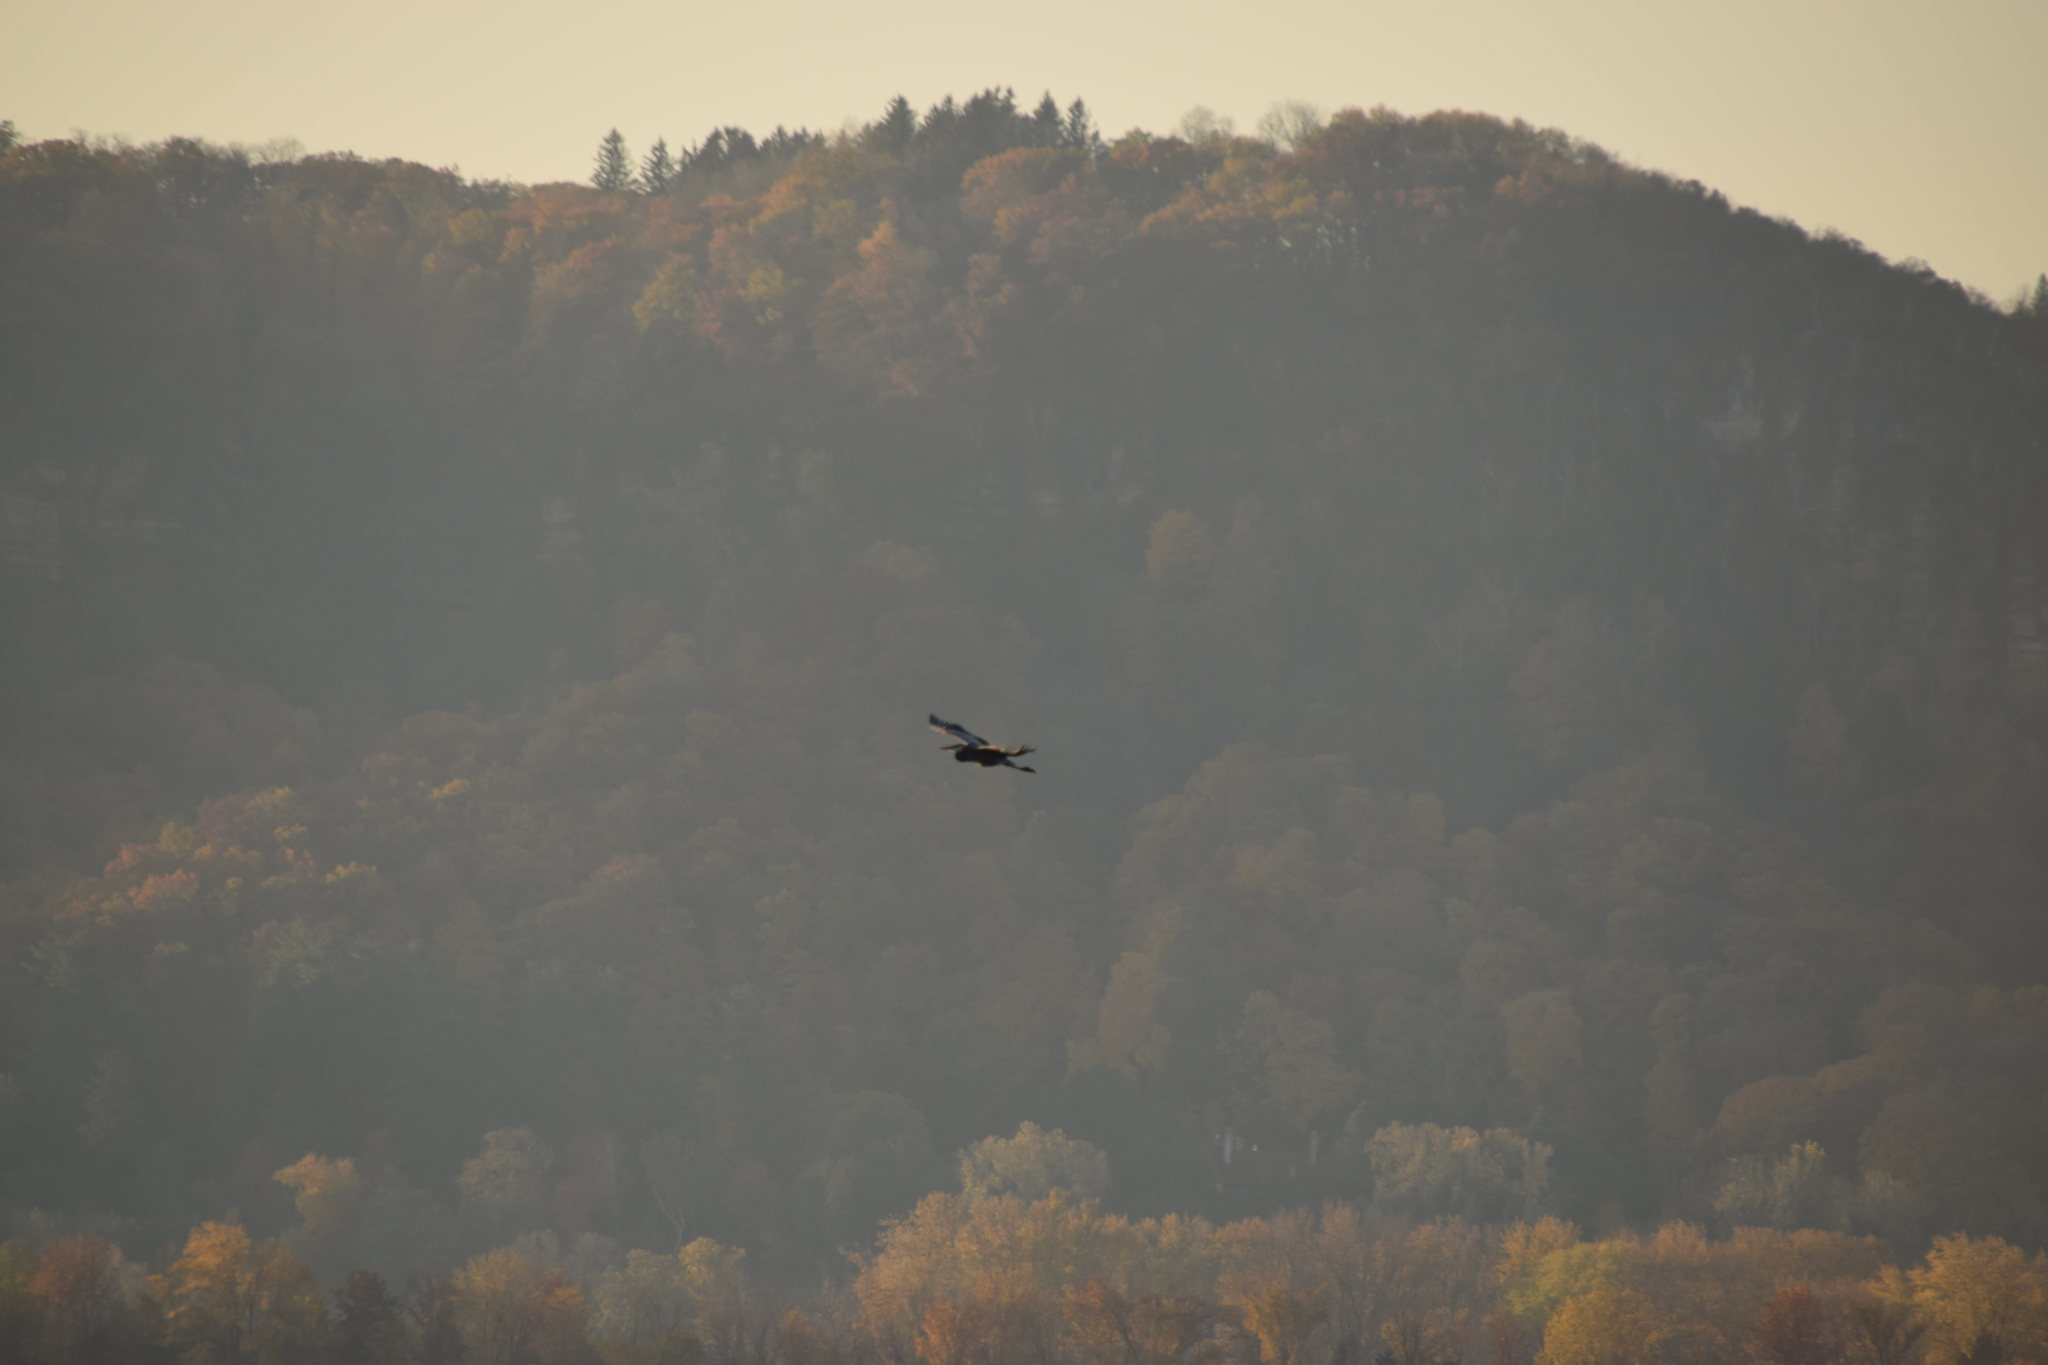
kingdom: Animalia
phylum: Chordata
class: Aves
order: Pelecaniformes
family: Ardeidae
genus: Ardea
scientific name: Ardea herodias
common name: Great blue heron
